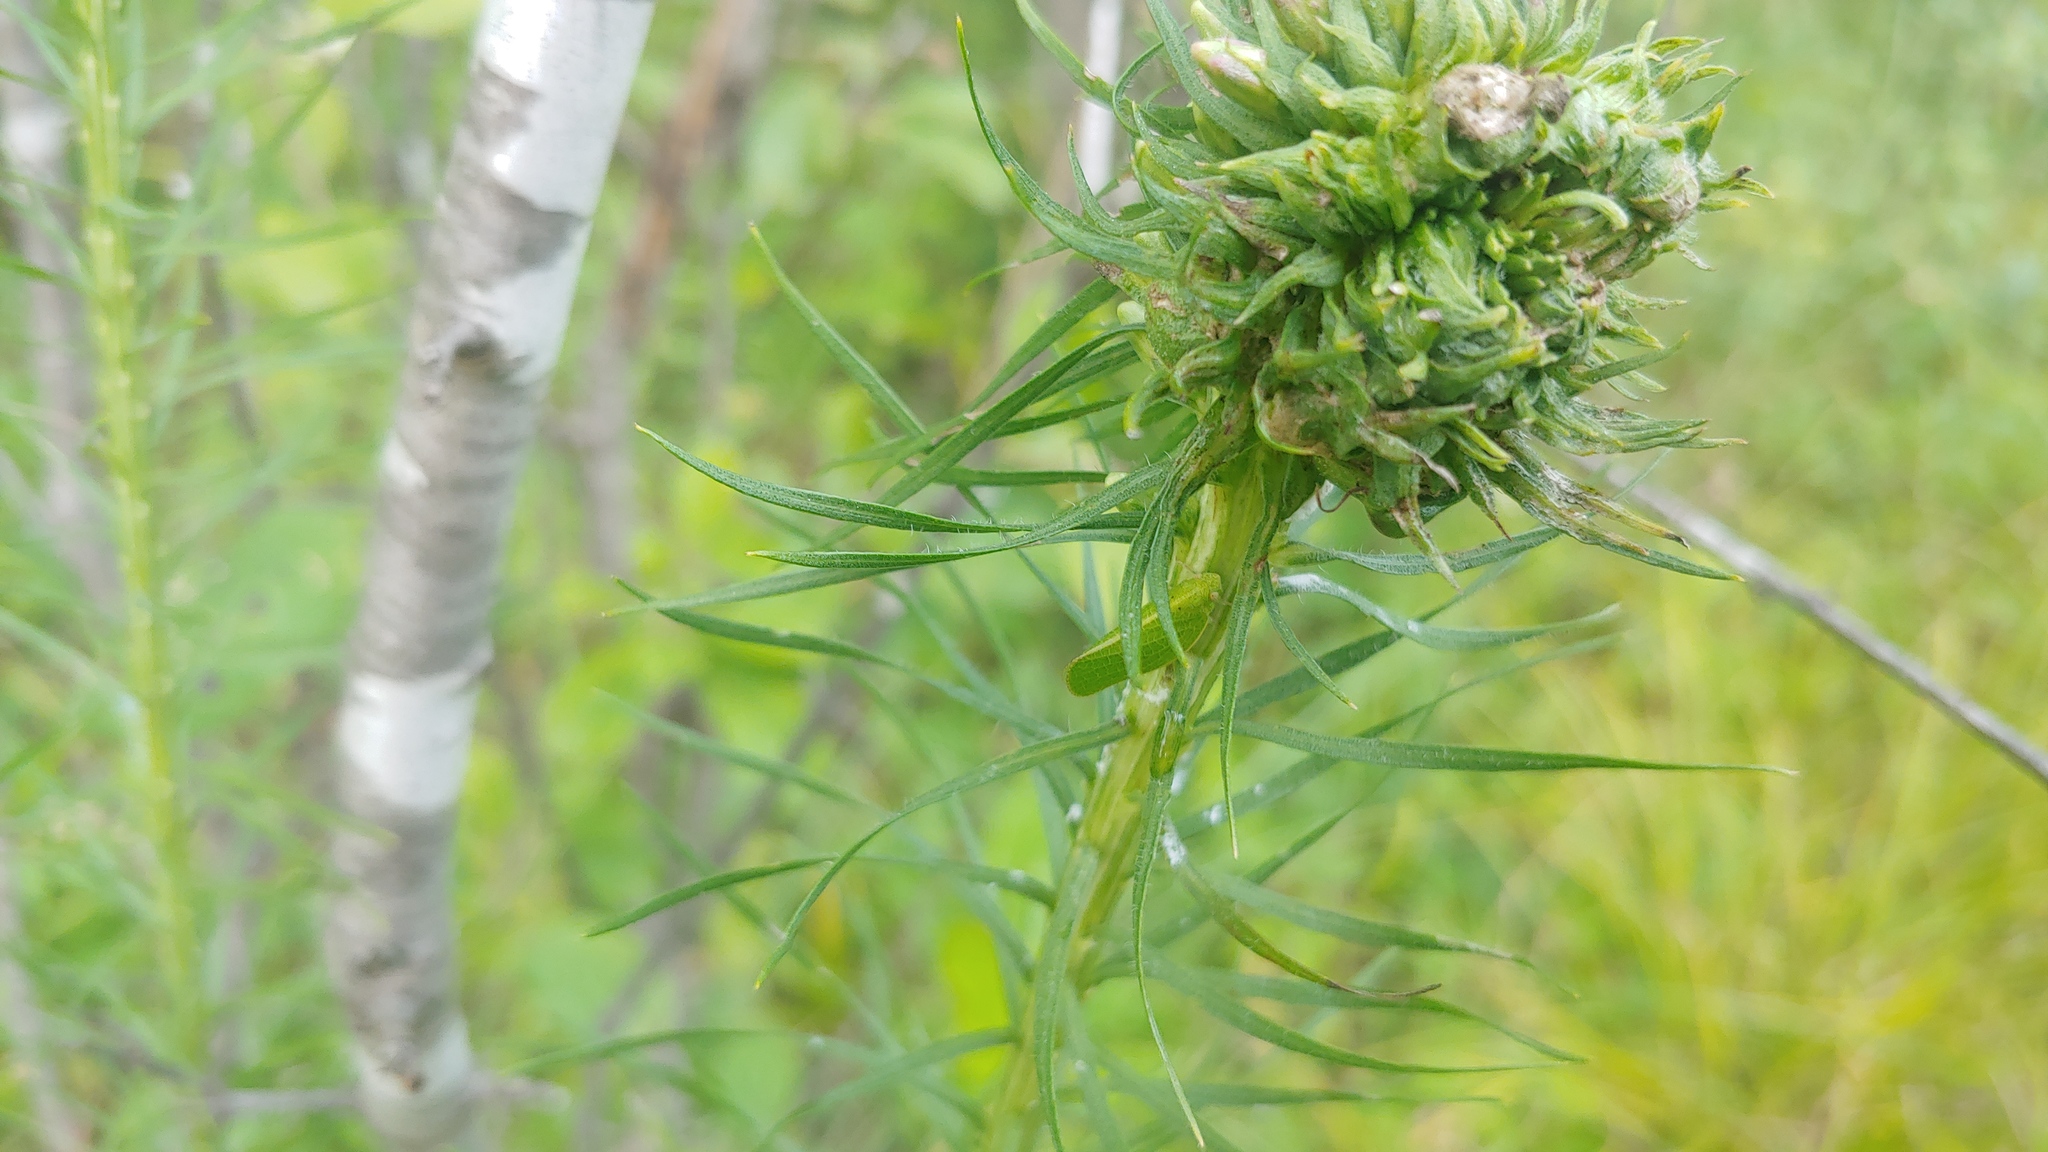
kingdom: Animalia
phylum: Arthropoda
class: Insecta
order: Hemiptera
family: Acanaloniidae
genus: Acanalonia
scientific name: Acanalonia conica
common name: Green cone-headed planthopper
